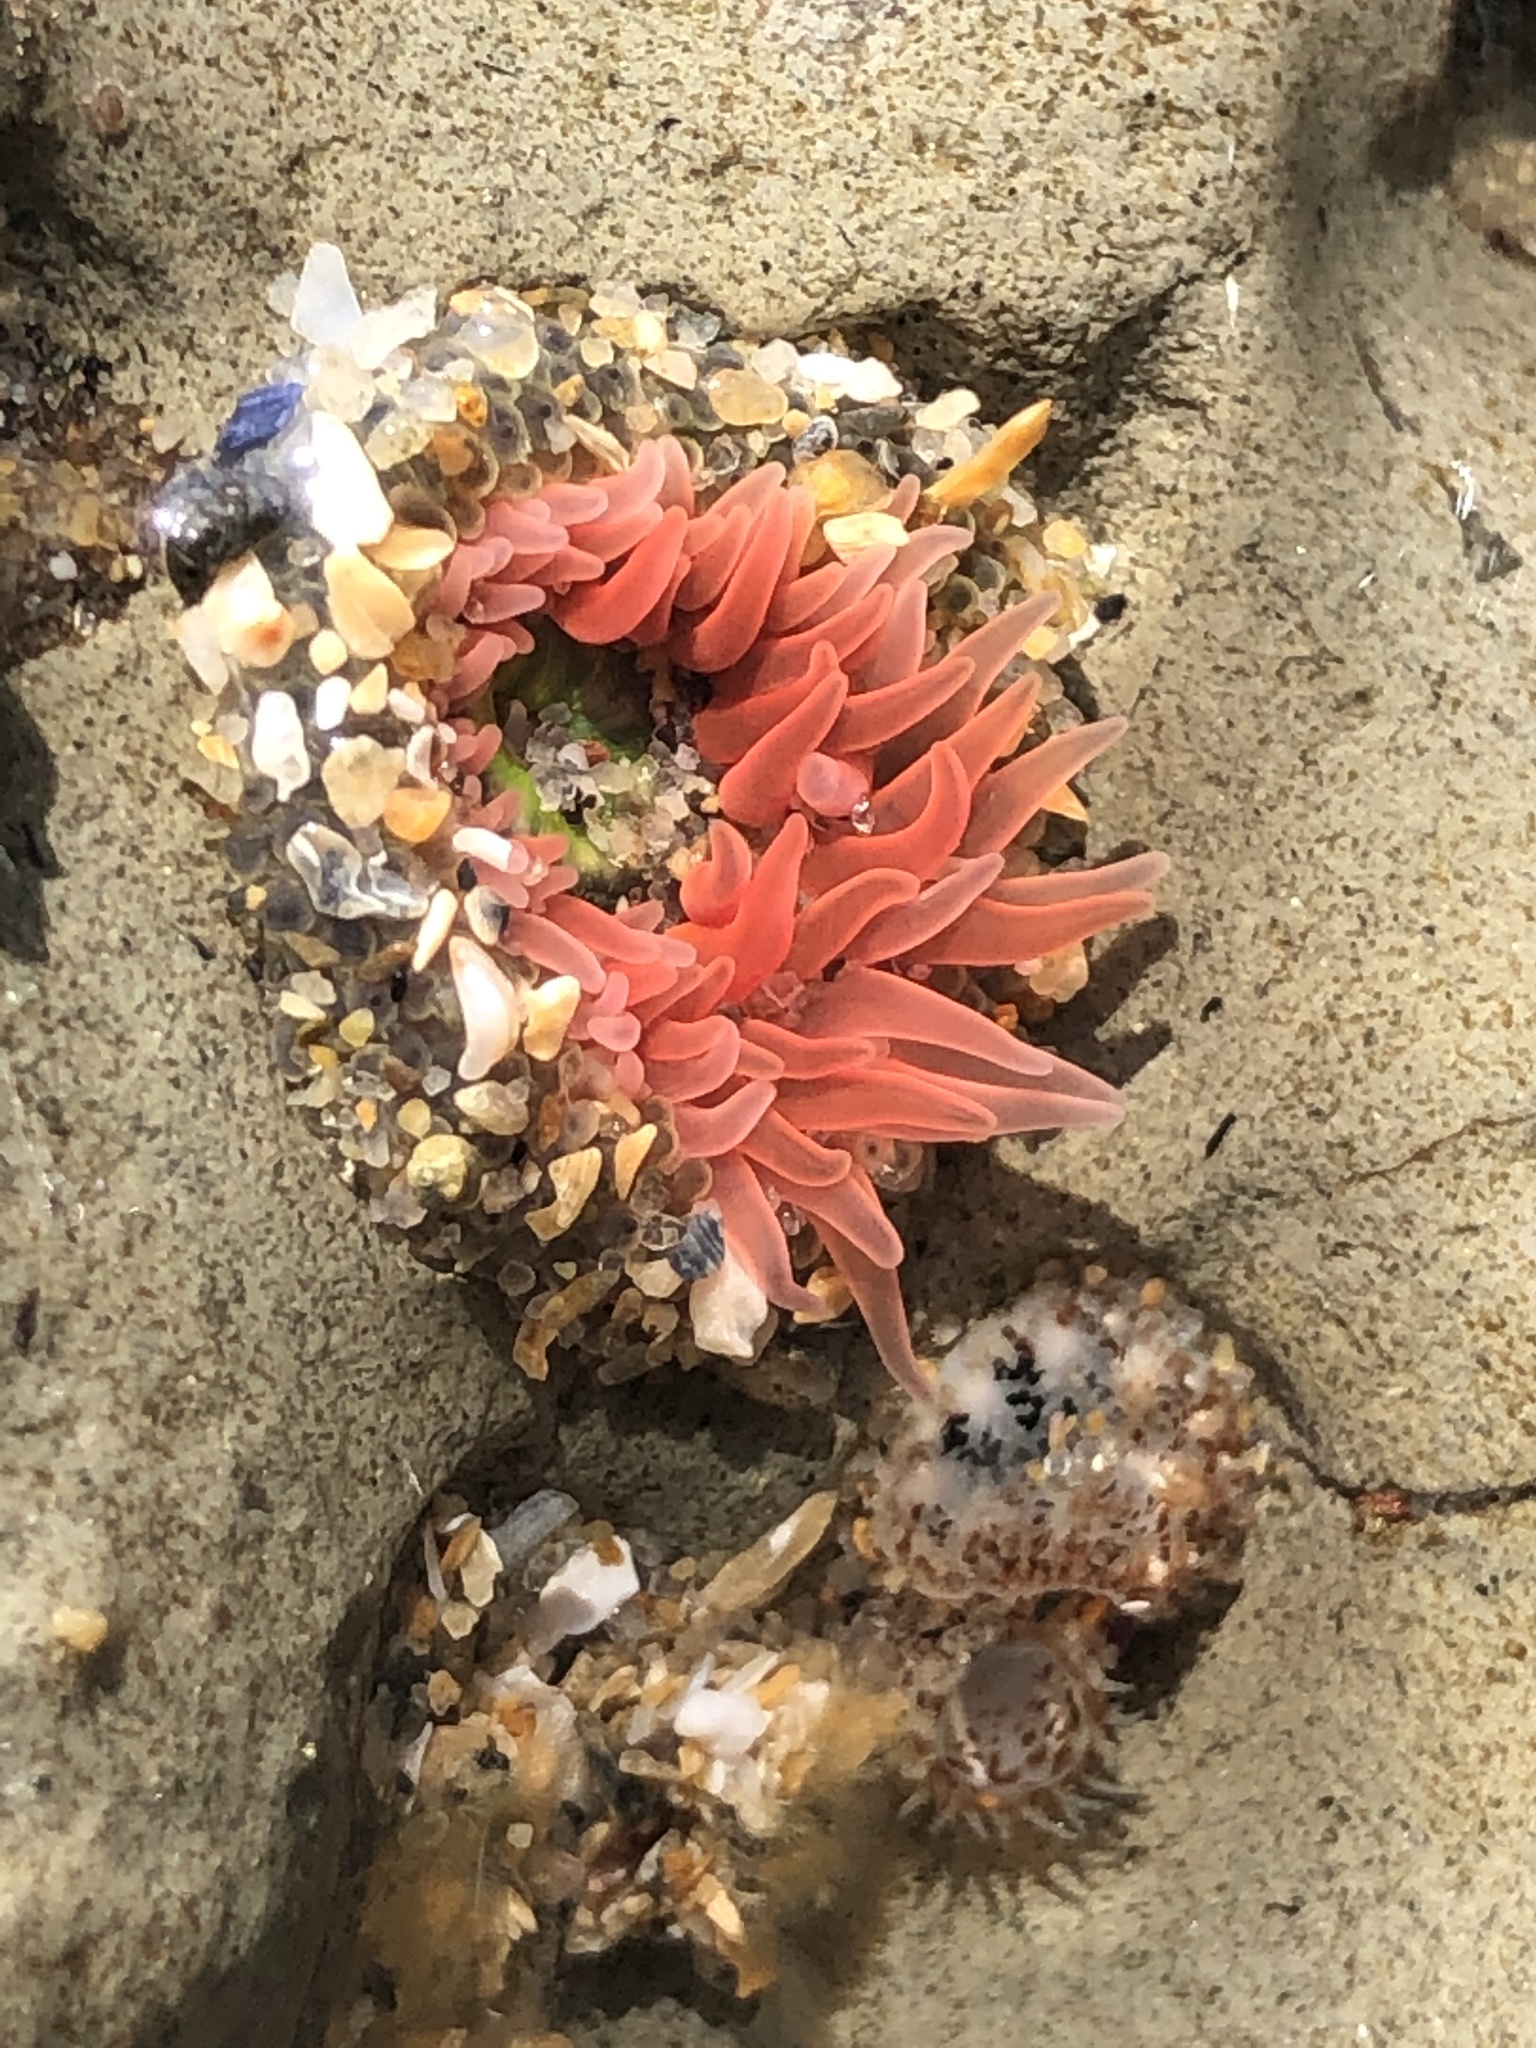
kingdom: Animalia
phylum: Cnidaria
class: Anthozoa
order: Actiniaria
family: Actiniidae
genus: Anthopleura
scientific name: Anthopleura artemisia
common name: Buried sea anemone
